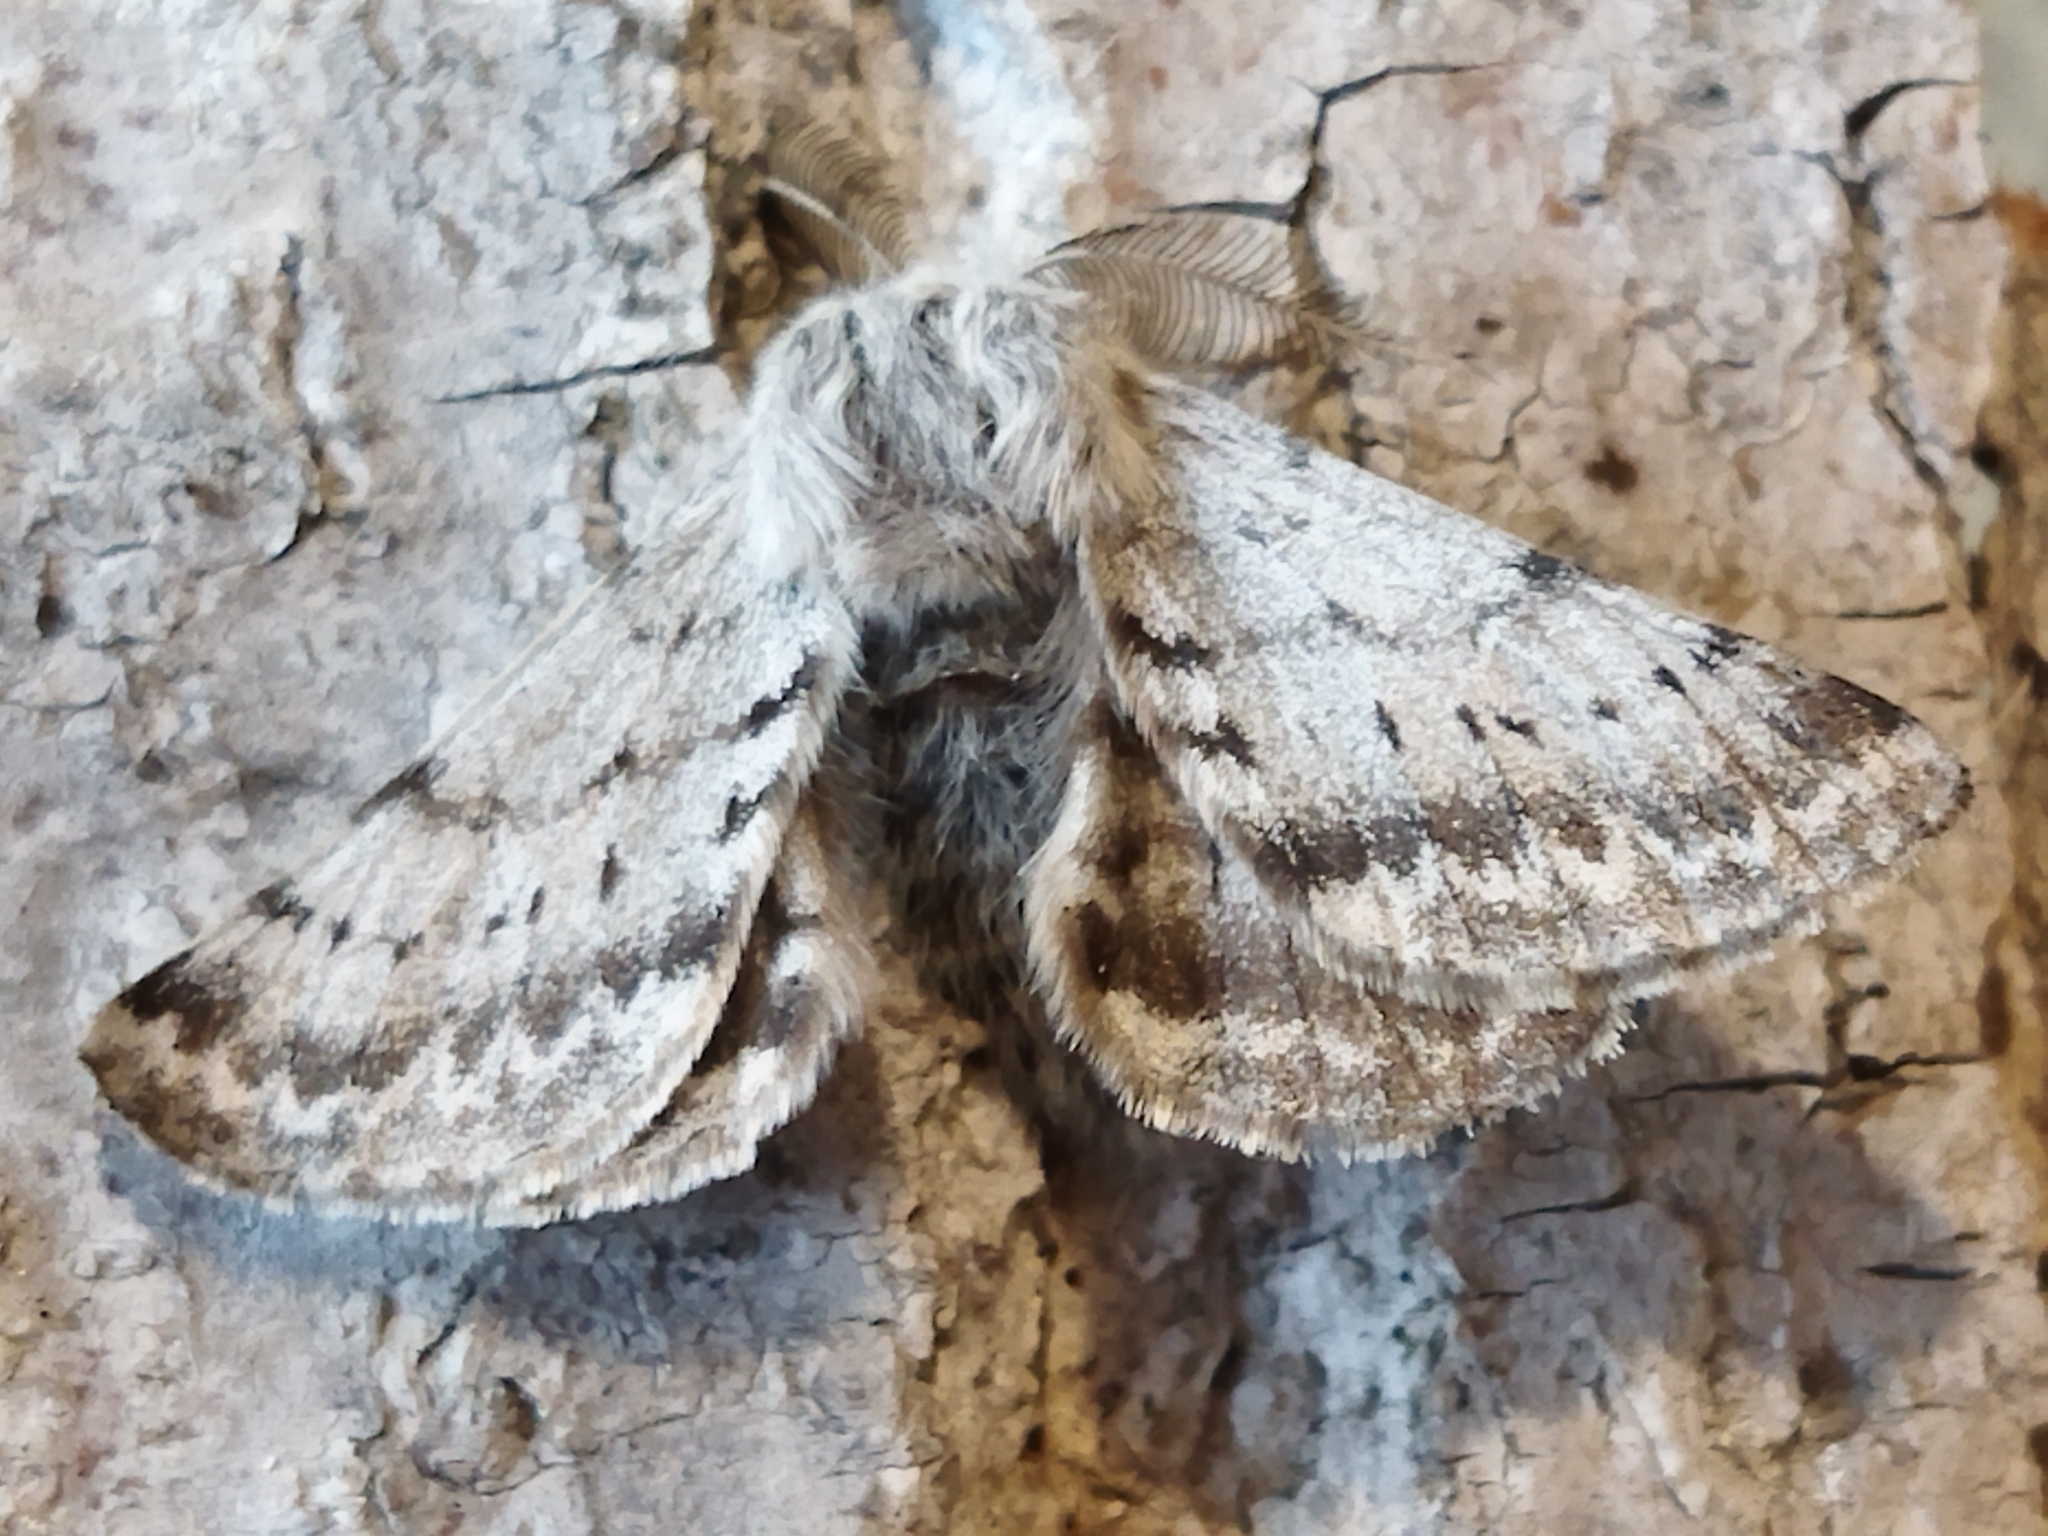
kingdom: Animalia
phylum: Arthropoda
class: Insecta
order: Lepidoptera
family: Geometridae
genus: Lycia
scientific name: Lycia graecarius
